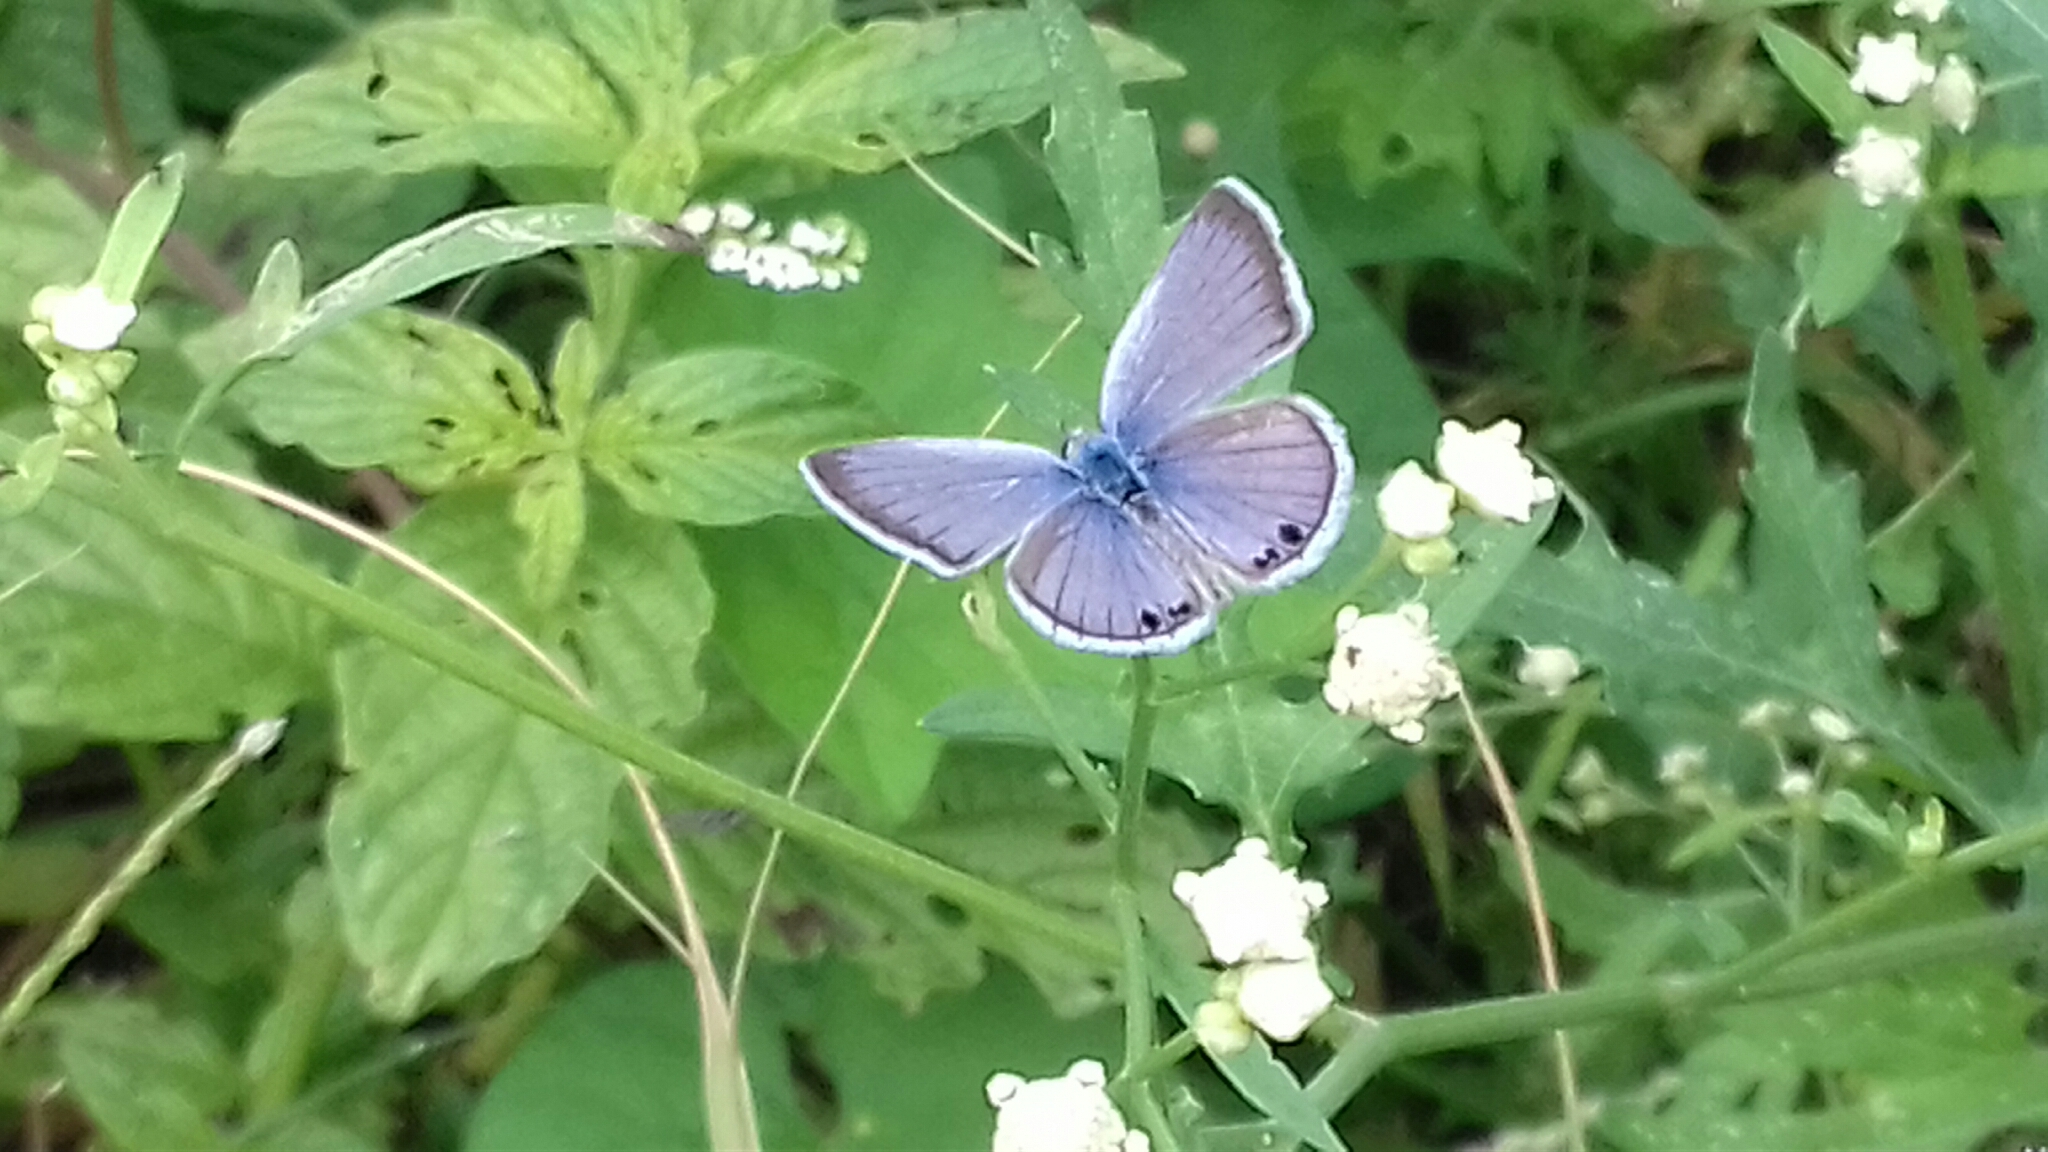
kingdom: Animalia
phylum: Arthropoda
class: Insecta
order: Lepidoptera
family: Lycaenidae
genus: Echinargus
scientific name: Echinargus isola
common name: Reakirt's blue
